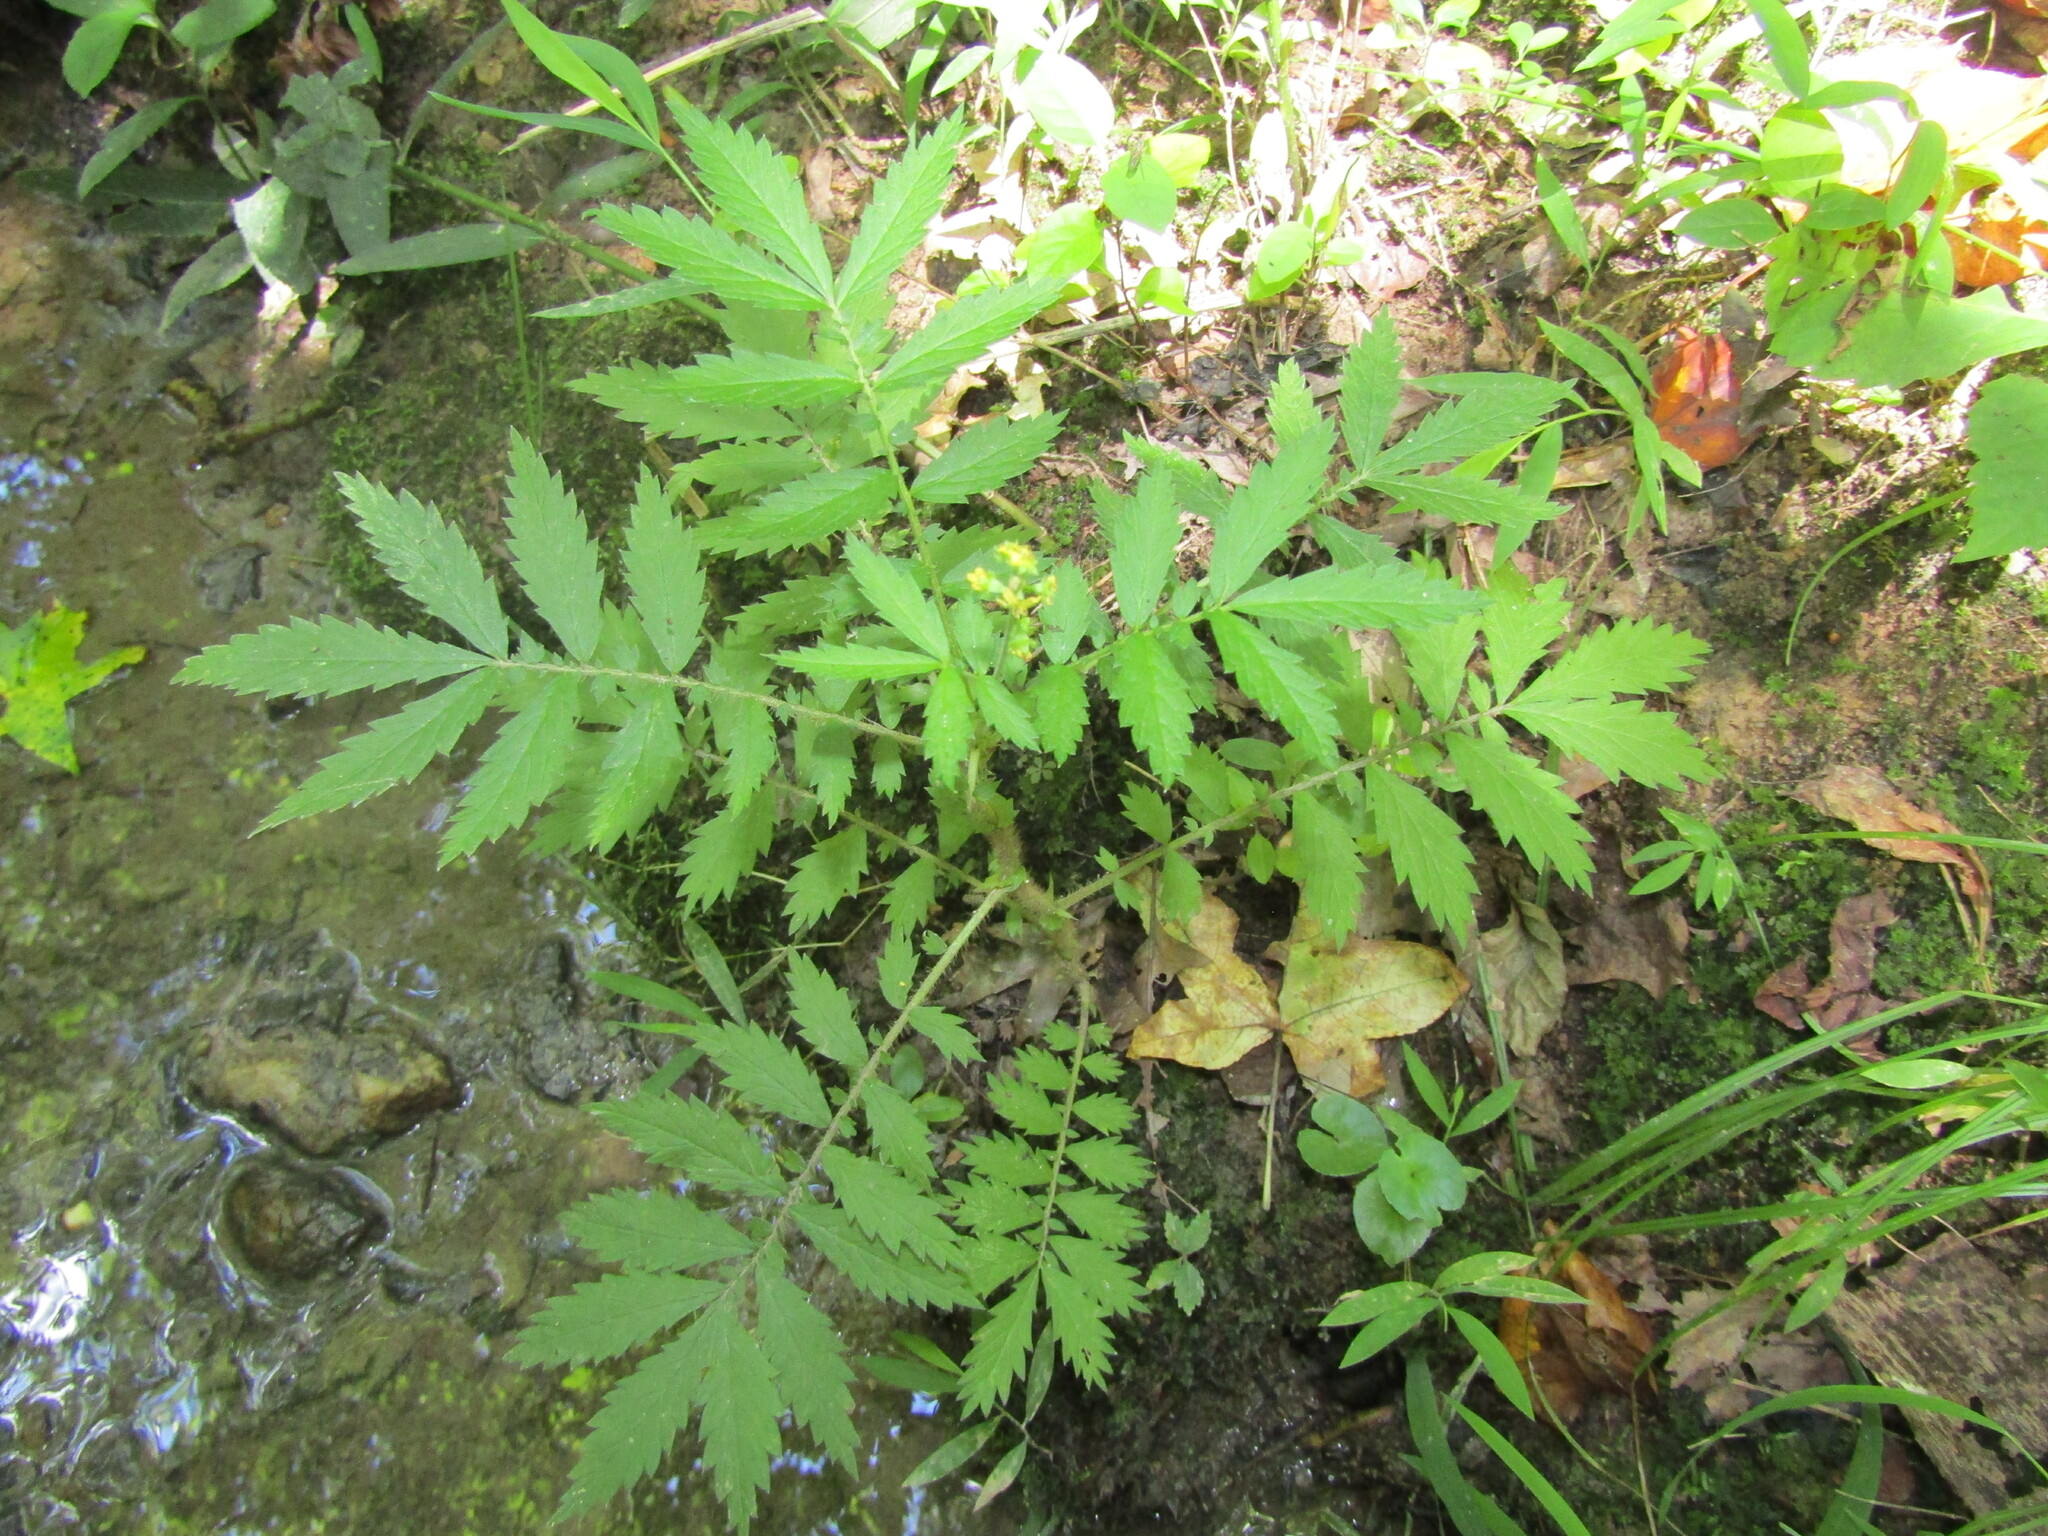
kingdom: Plantae
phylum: Tracheophyta
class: Magnoliopsida
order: Rosales
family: Rosaceae
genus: Agrimonia
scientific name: Agrimonia parviflora
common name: Harvest-lice
